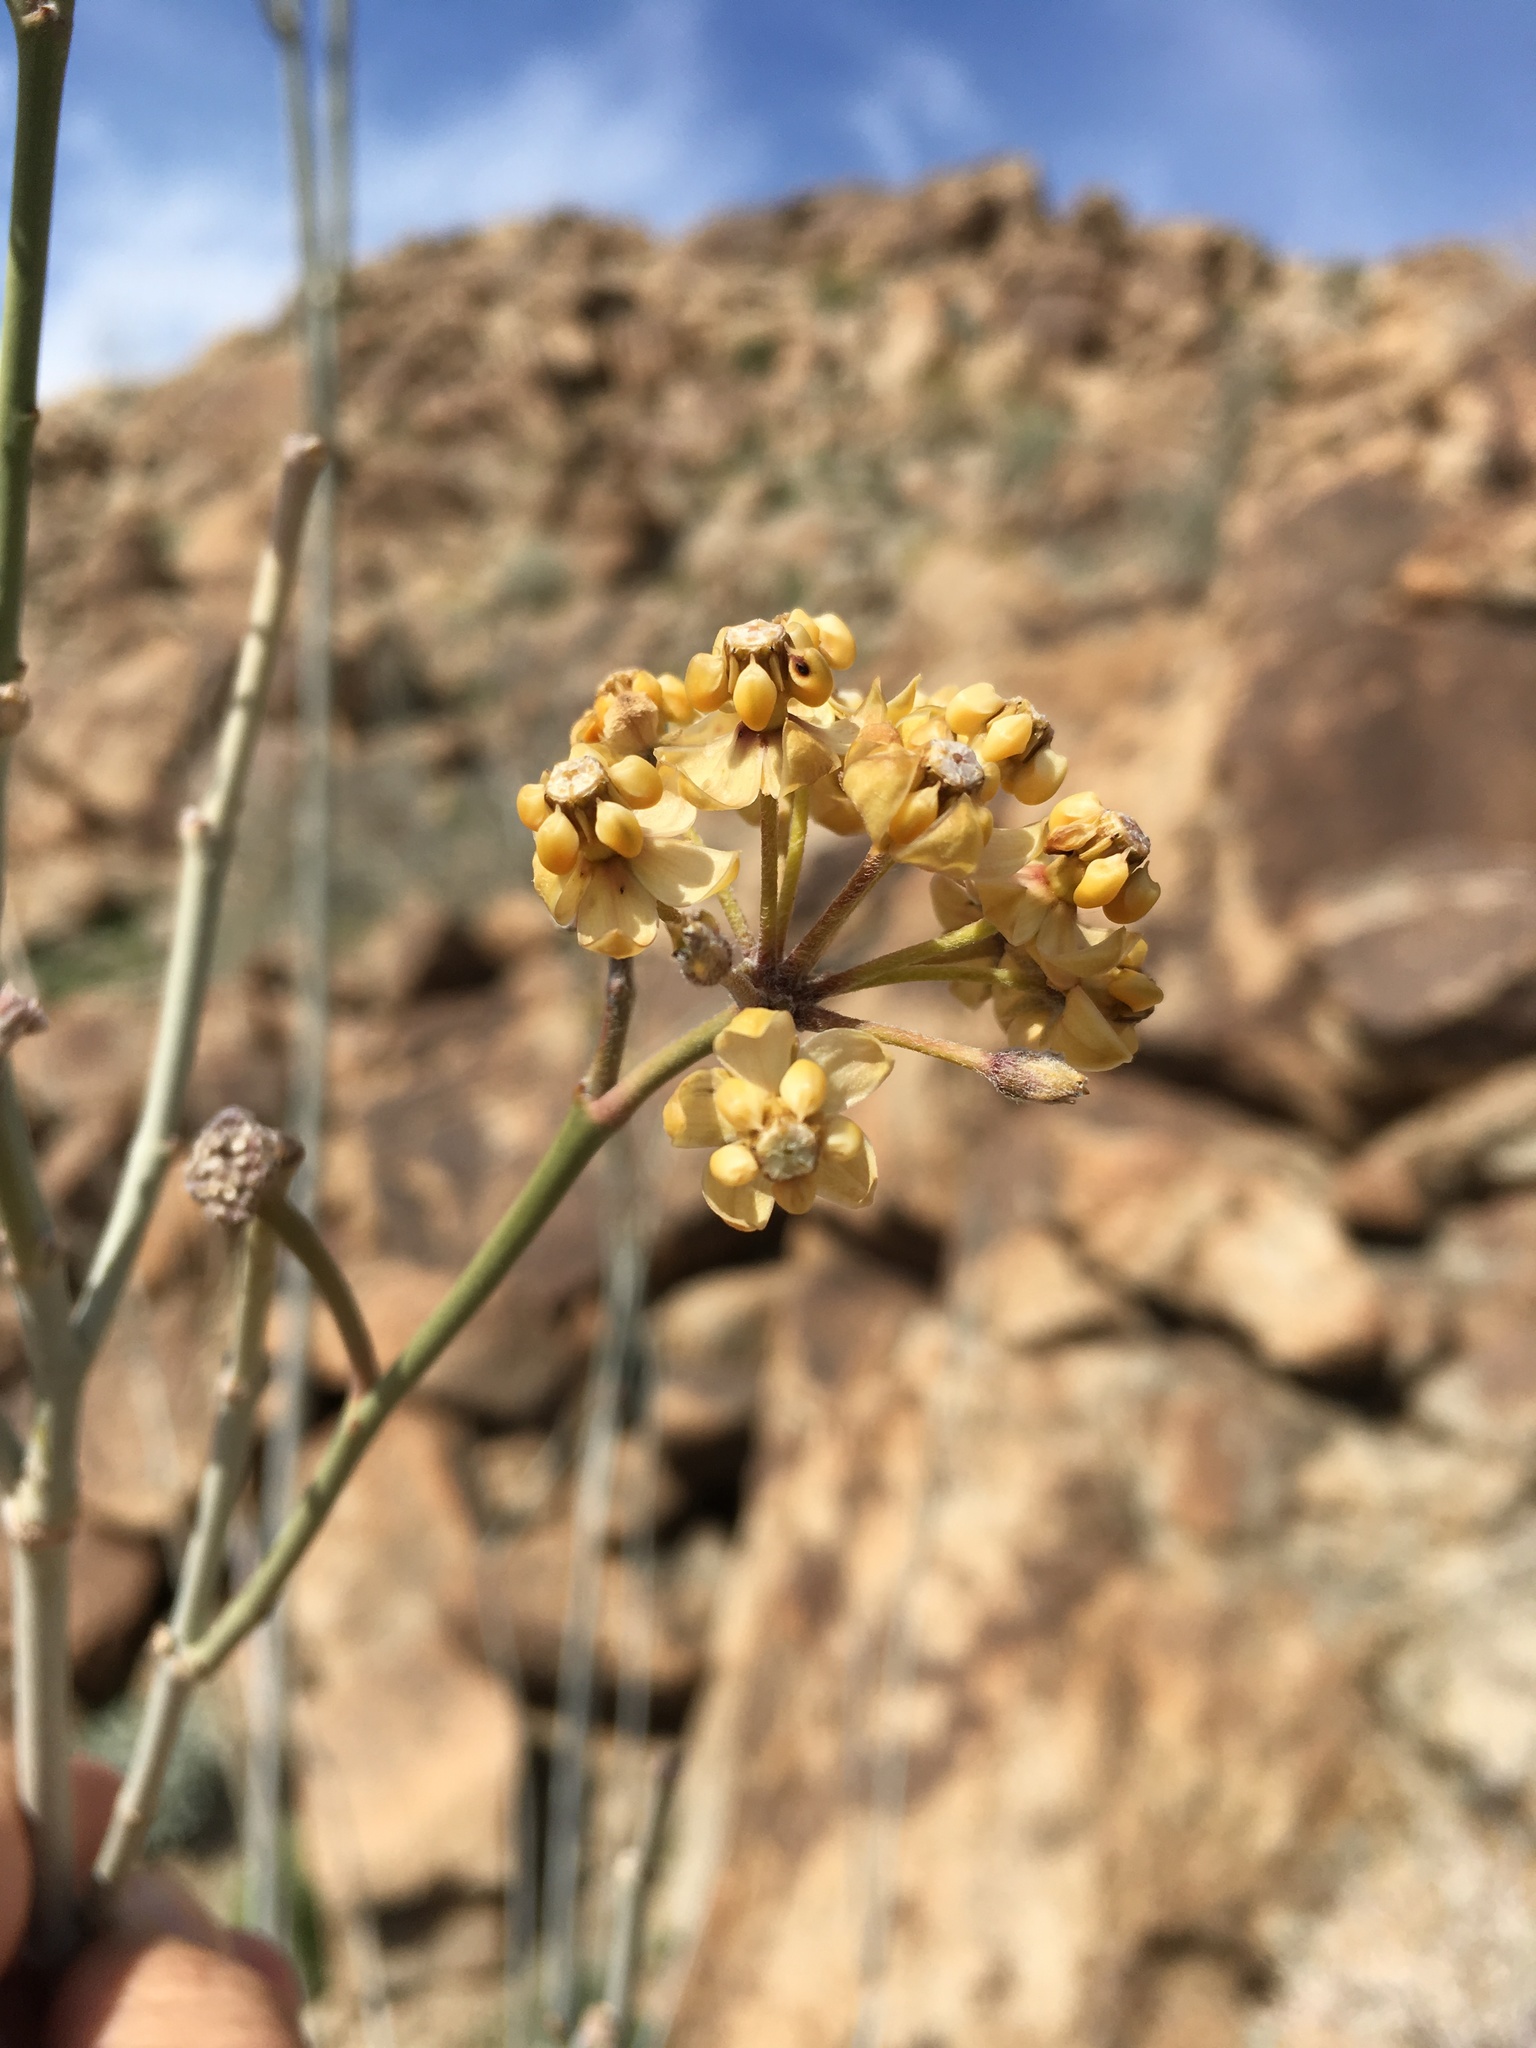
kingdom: Plantae
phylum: Tracheophyta
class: Magnoliopsida
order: Gentianales
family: Apocynaceae
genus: Asclepias
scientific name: Asclepias albicans
